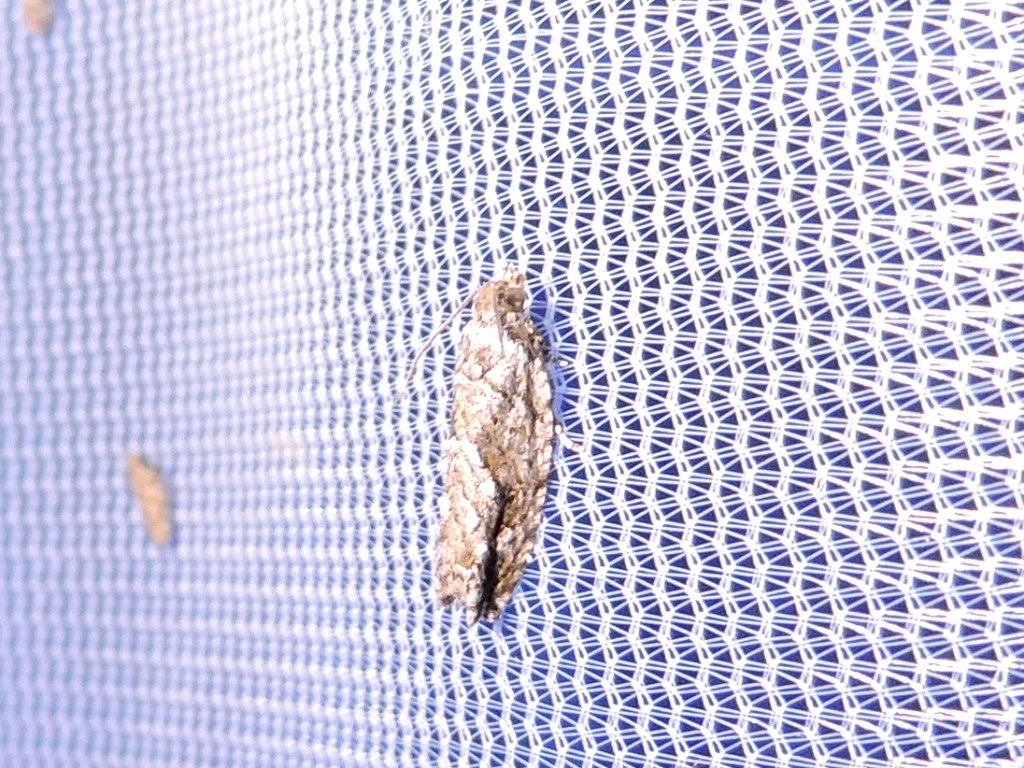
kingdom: Animalia
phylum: Arthropoda
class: Insecta
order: Lepidoptera
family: Tortricidae
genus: Gretchena
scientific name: Gretchena bolliana
